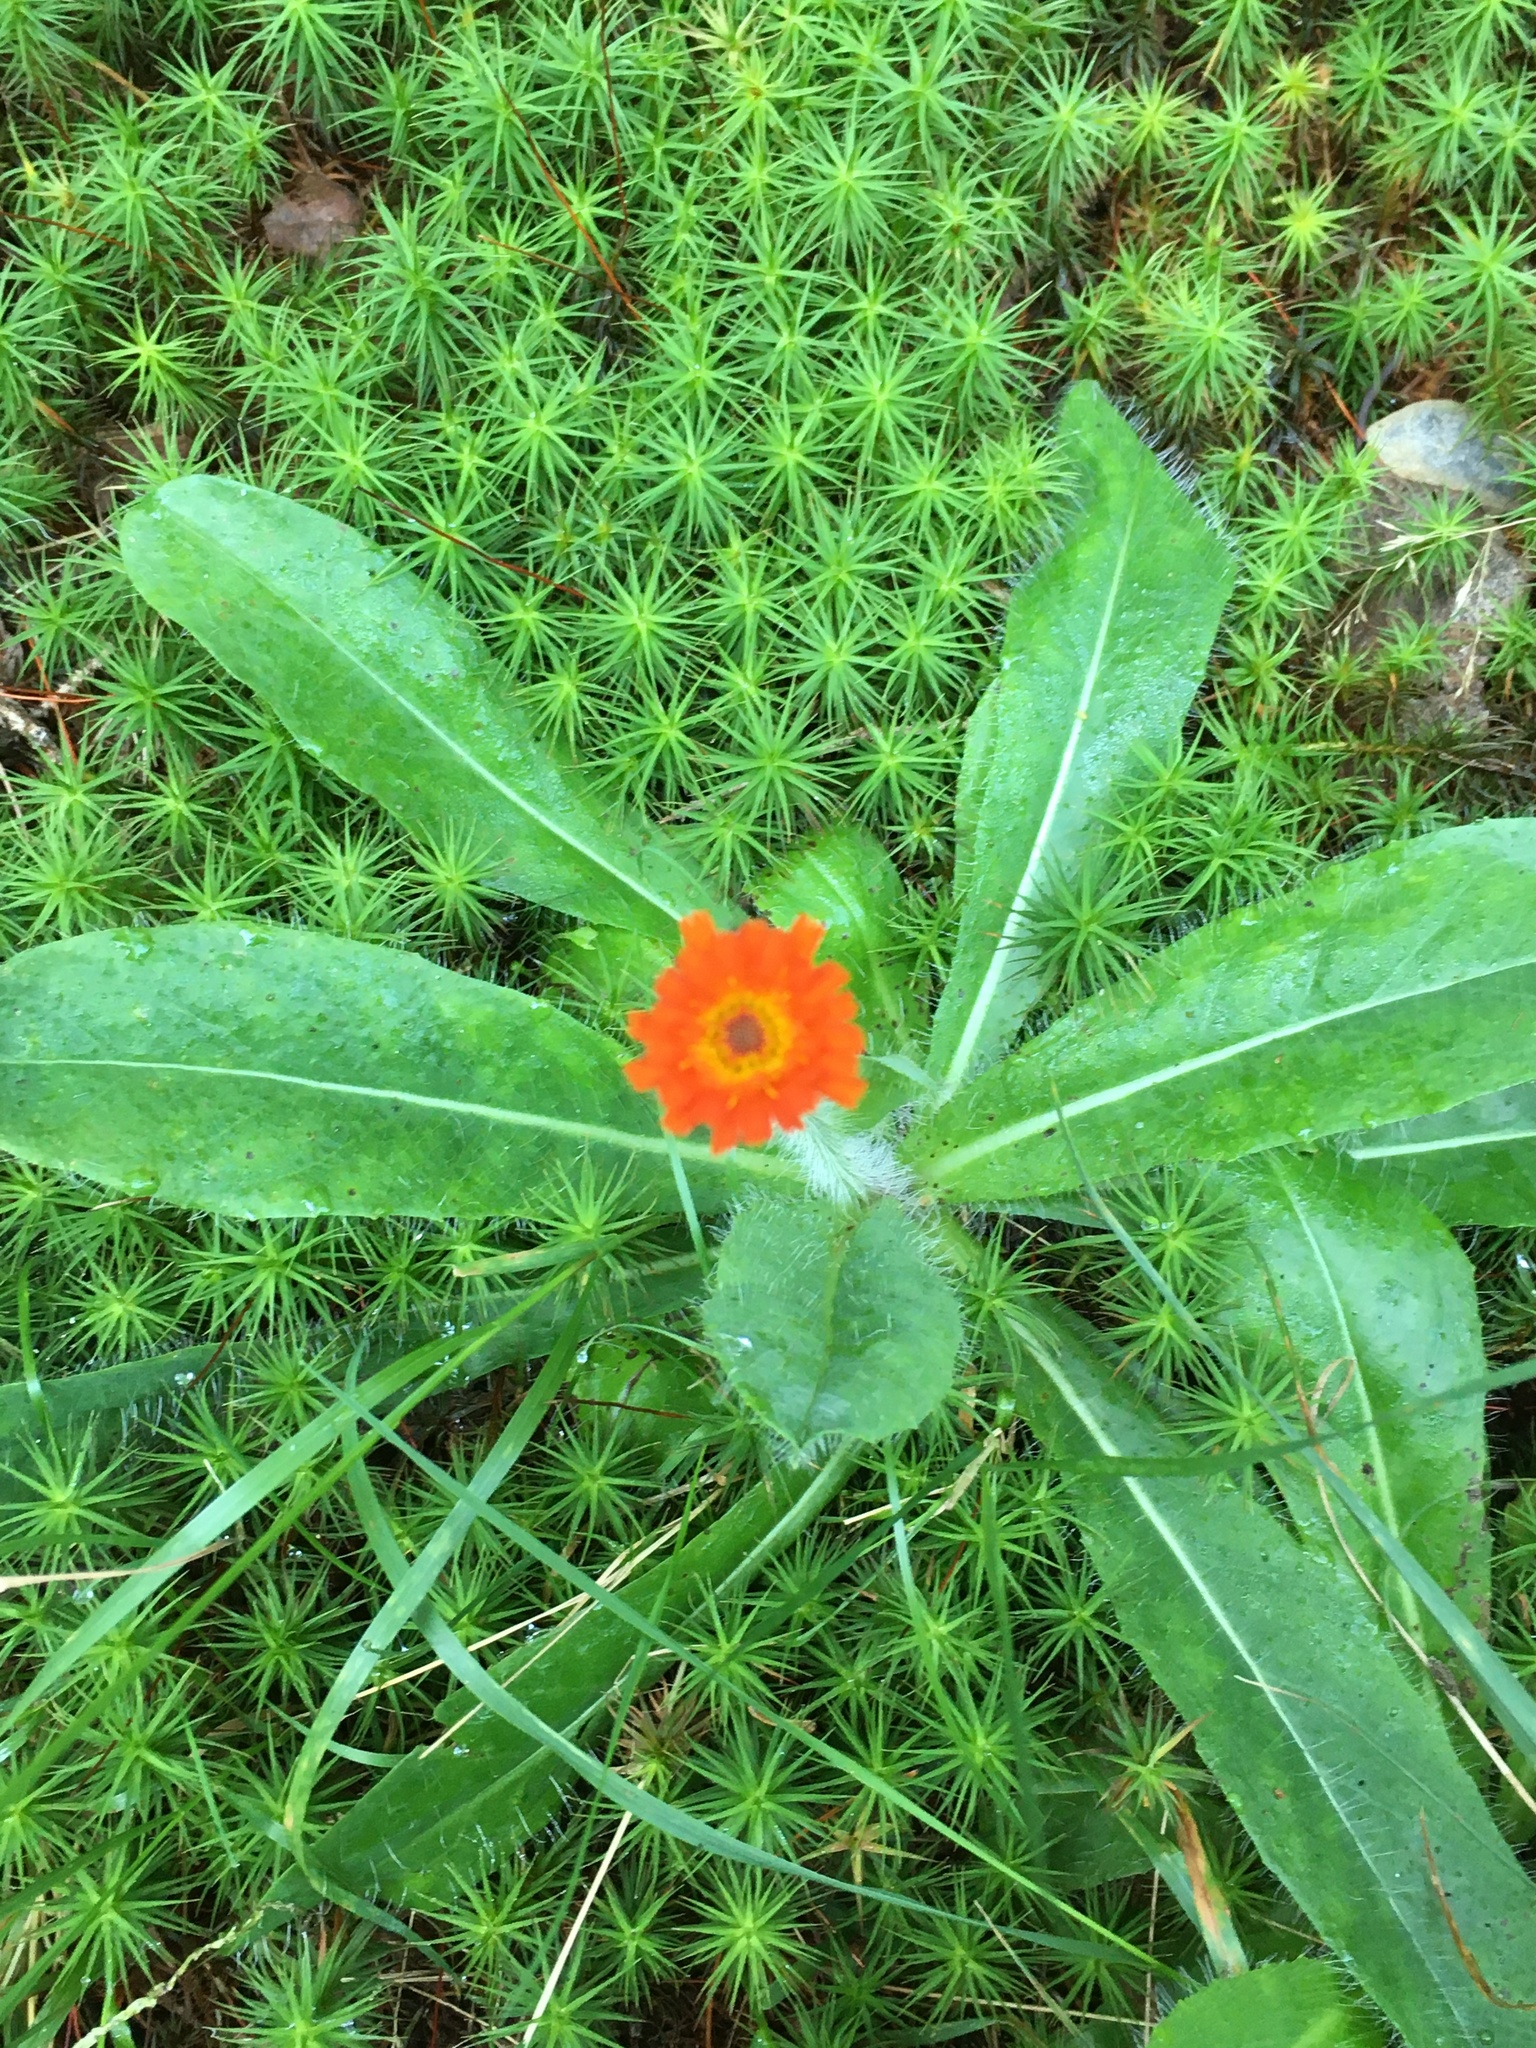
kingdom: Plantae
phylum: Tracheophyta
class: Magnoliopsida
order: Asterales
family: Asteraceae
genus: Pilosella
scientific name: Pilosella aurantiaca
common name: Fox-and-cubs
